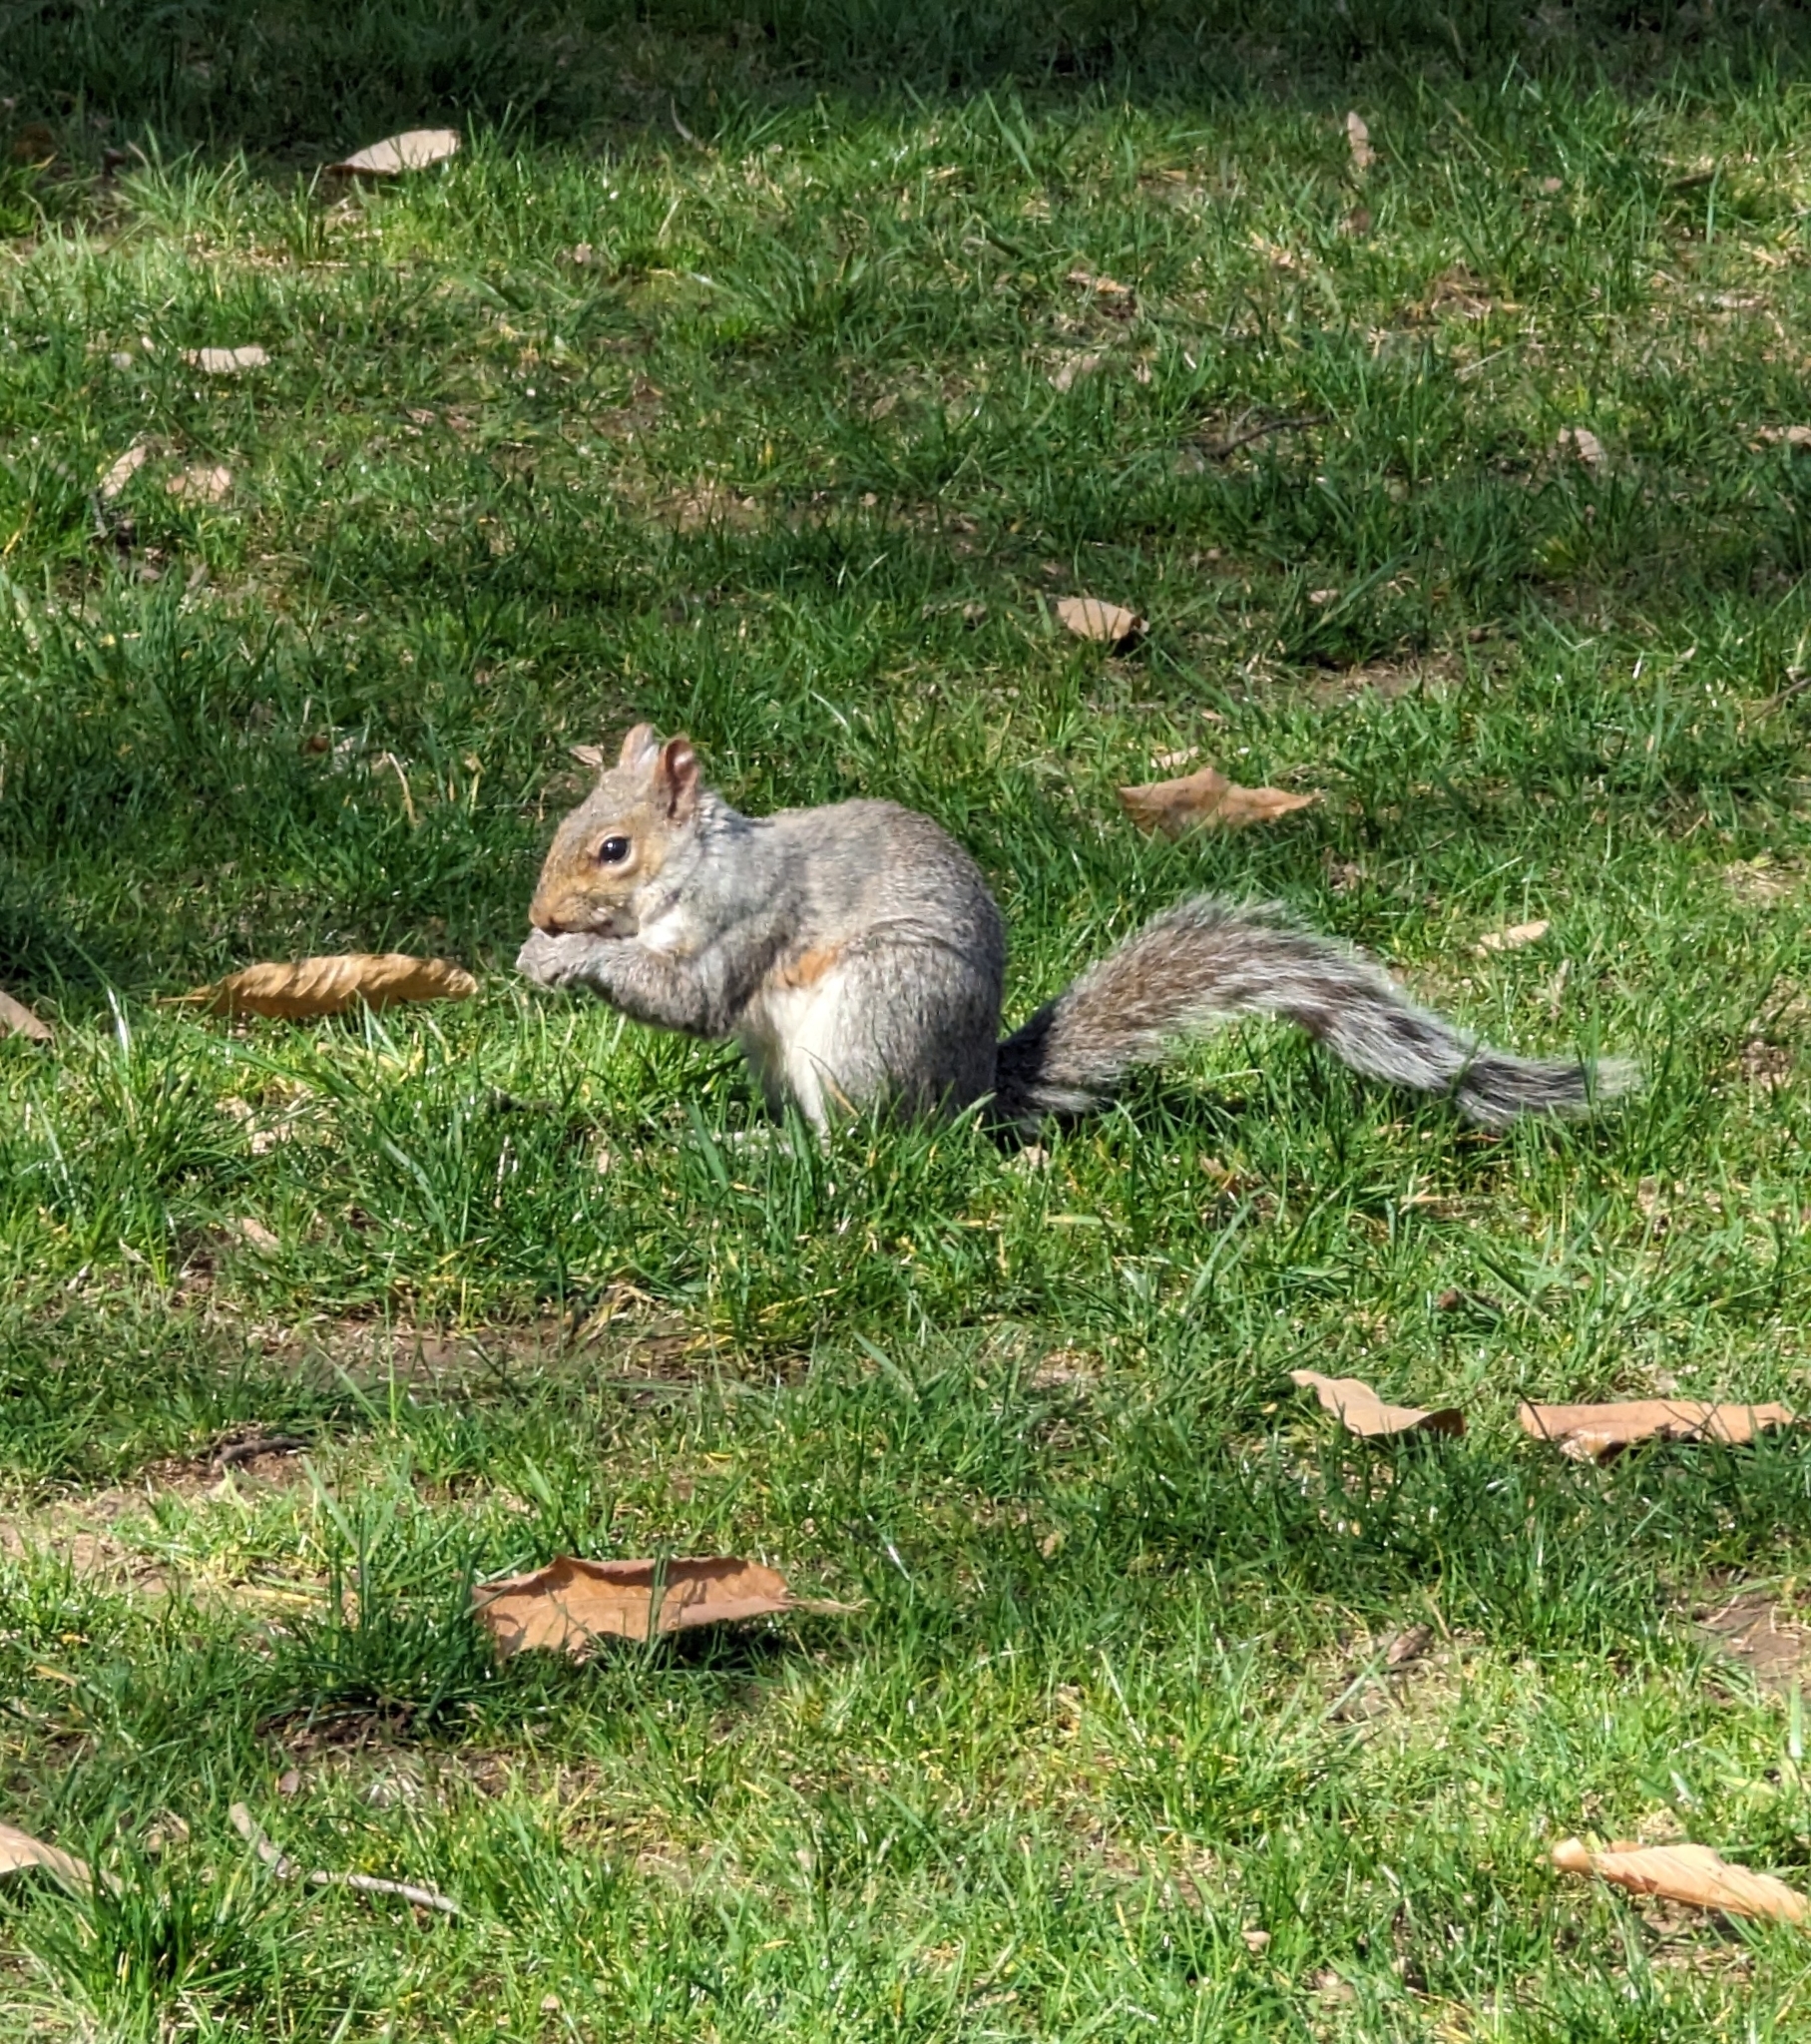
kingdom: Animalia
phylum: Chordata
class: Mammalia
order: Rodentia
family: Sciuridae
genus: Sciurus
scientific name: Sciurus carolinensis
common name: Eastern gray squirrel
